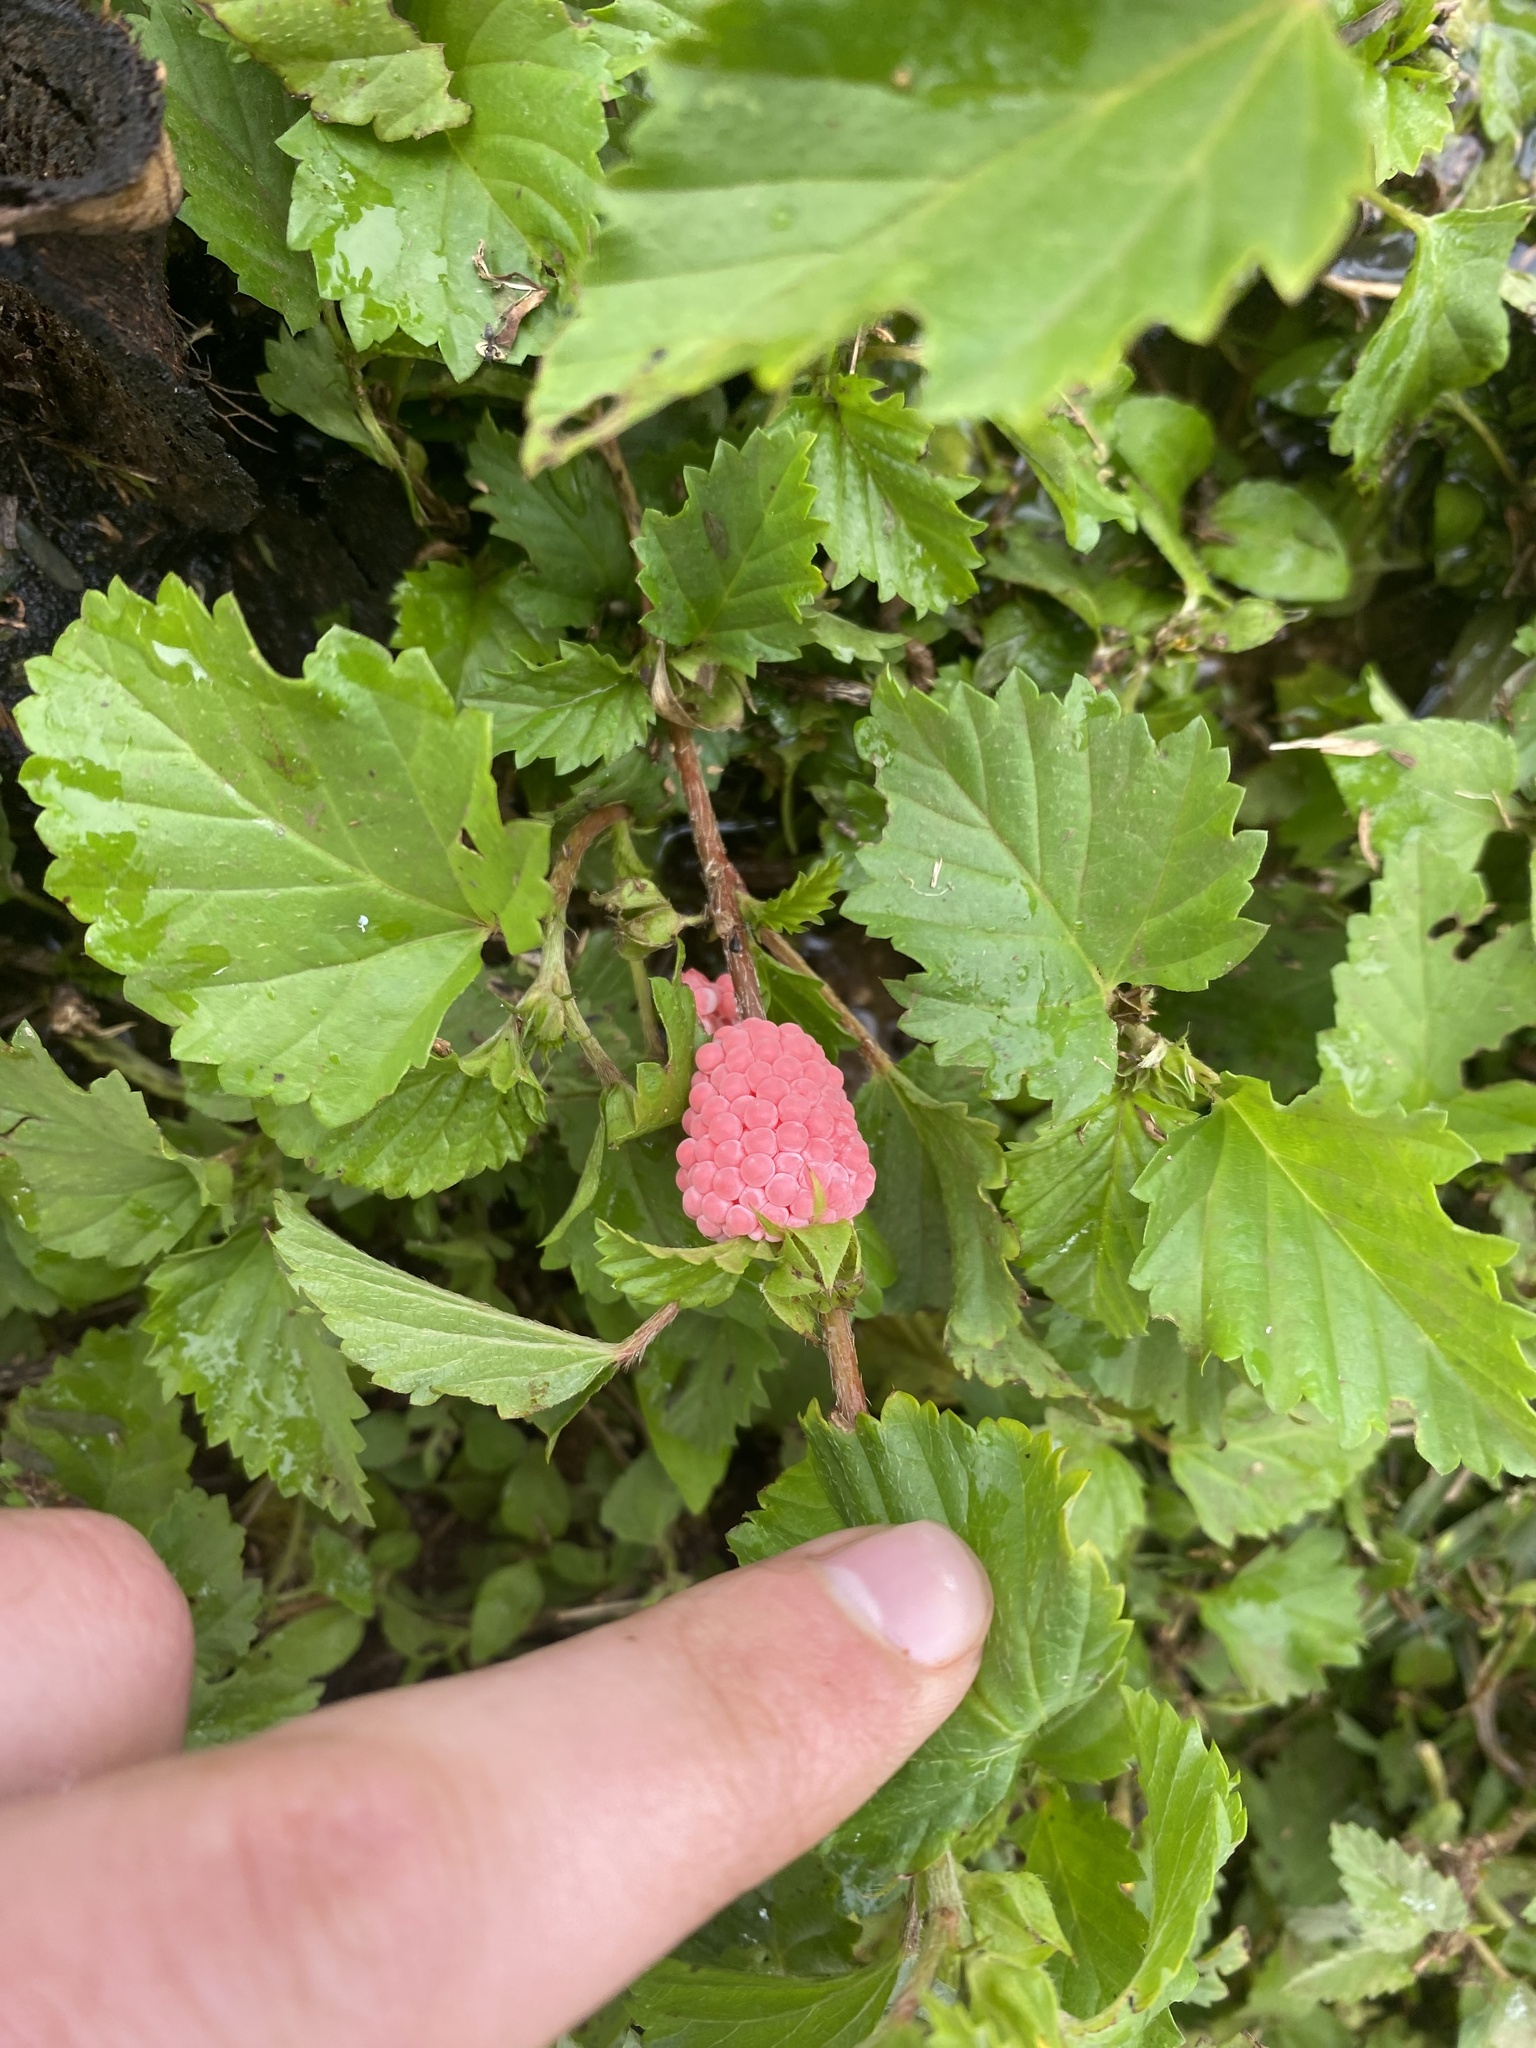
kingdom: Animalia
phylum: Mollusca
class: Gastropoda
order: Architaenioglossa
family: Ampullariidae
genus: Pomacea
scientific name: Pomacea canaliculata
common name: Channeled applesnail
